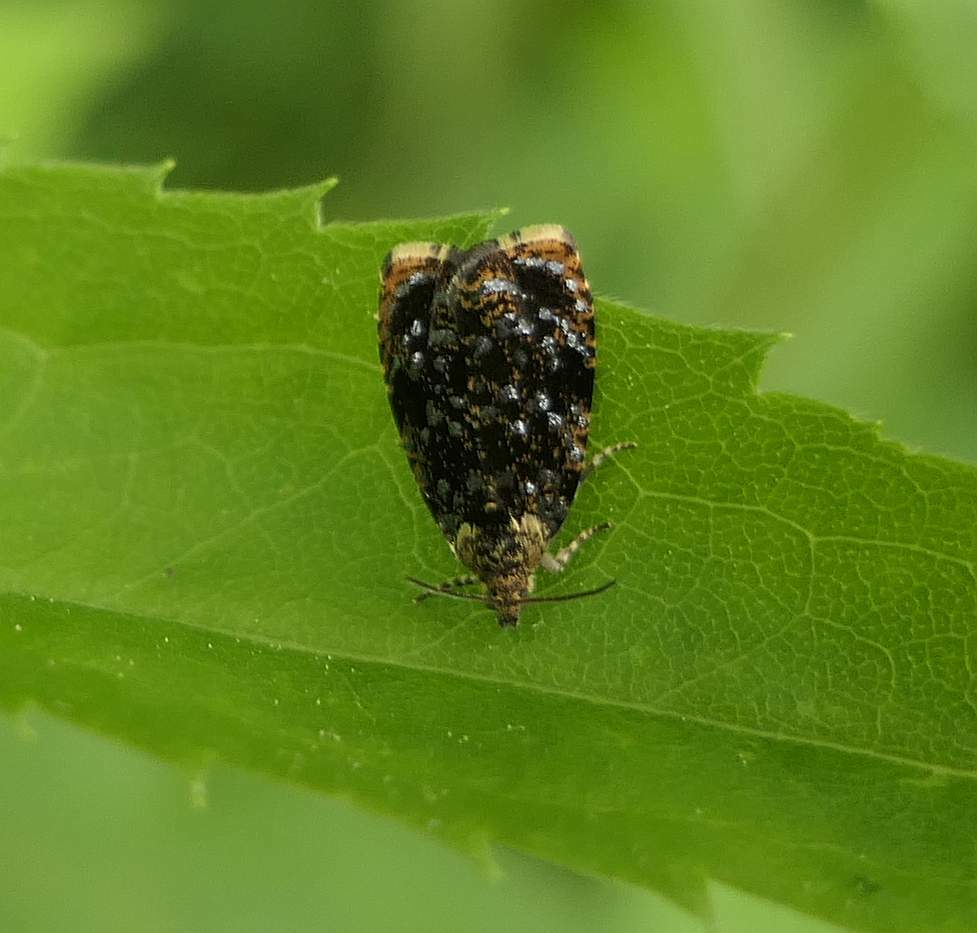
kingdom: Animalia
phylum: Arthropoda
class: Insecta
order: Lepidoptera
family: Tortricidae
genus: Olethreutes
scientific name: Olethreutes albiciliana
